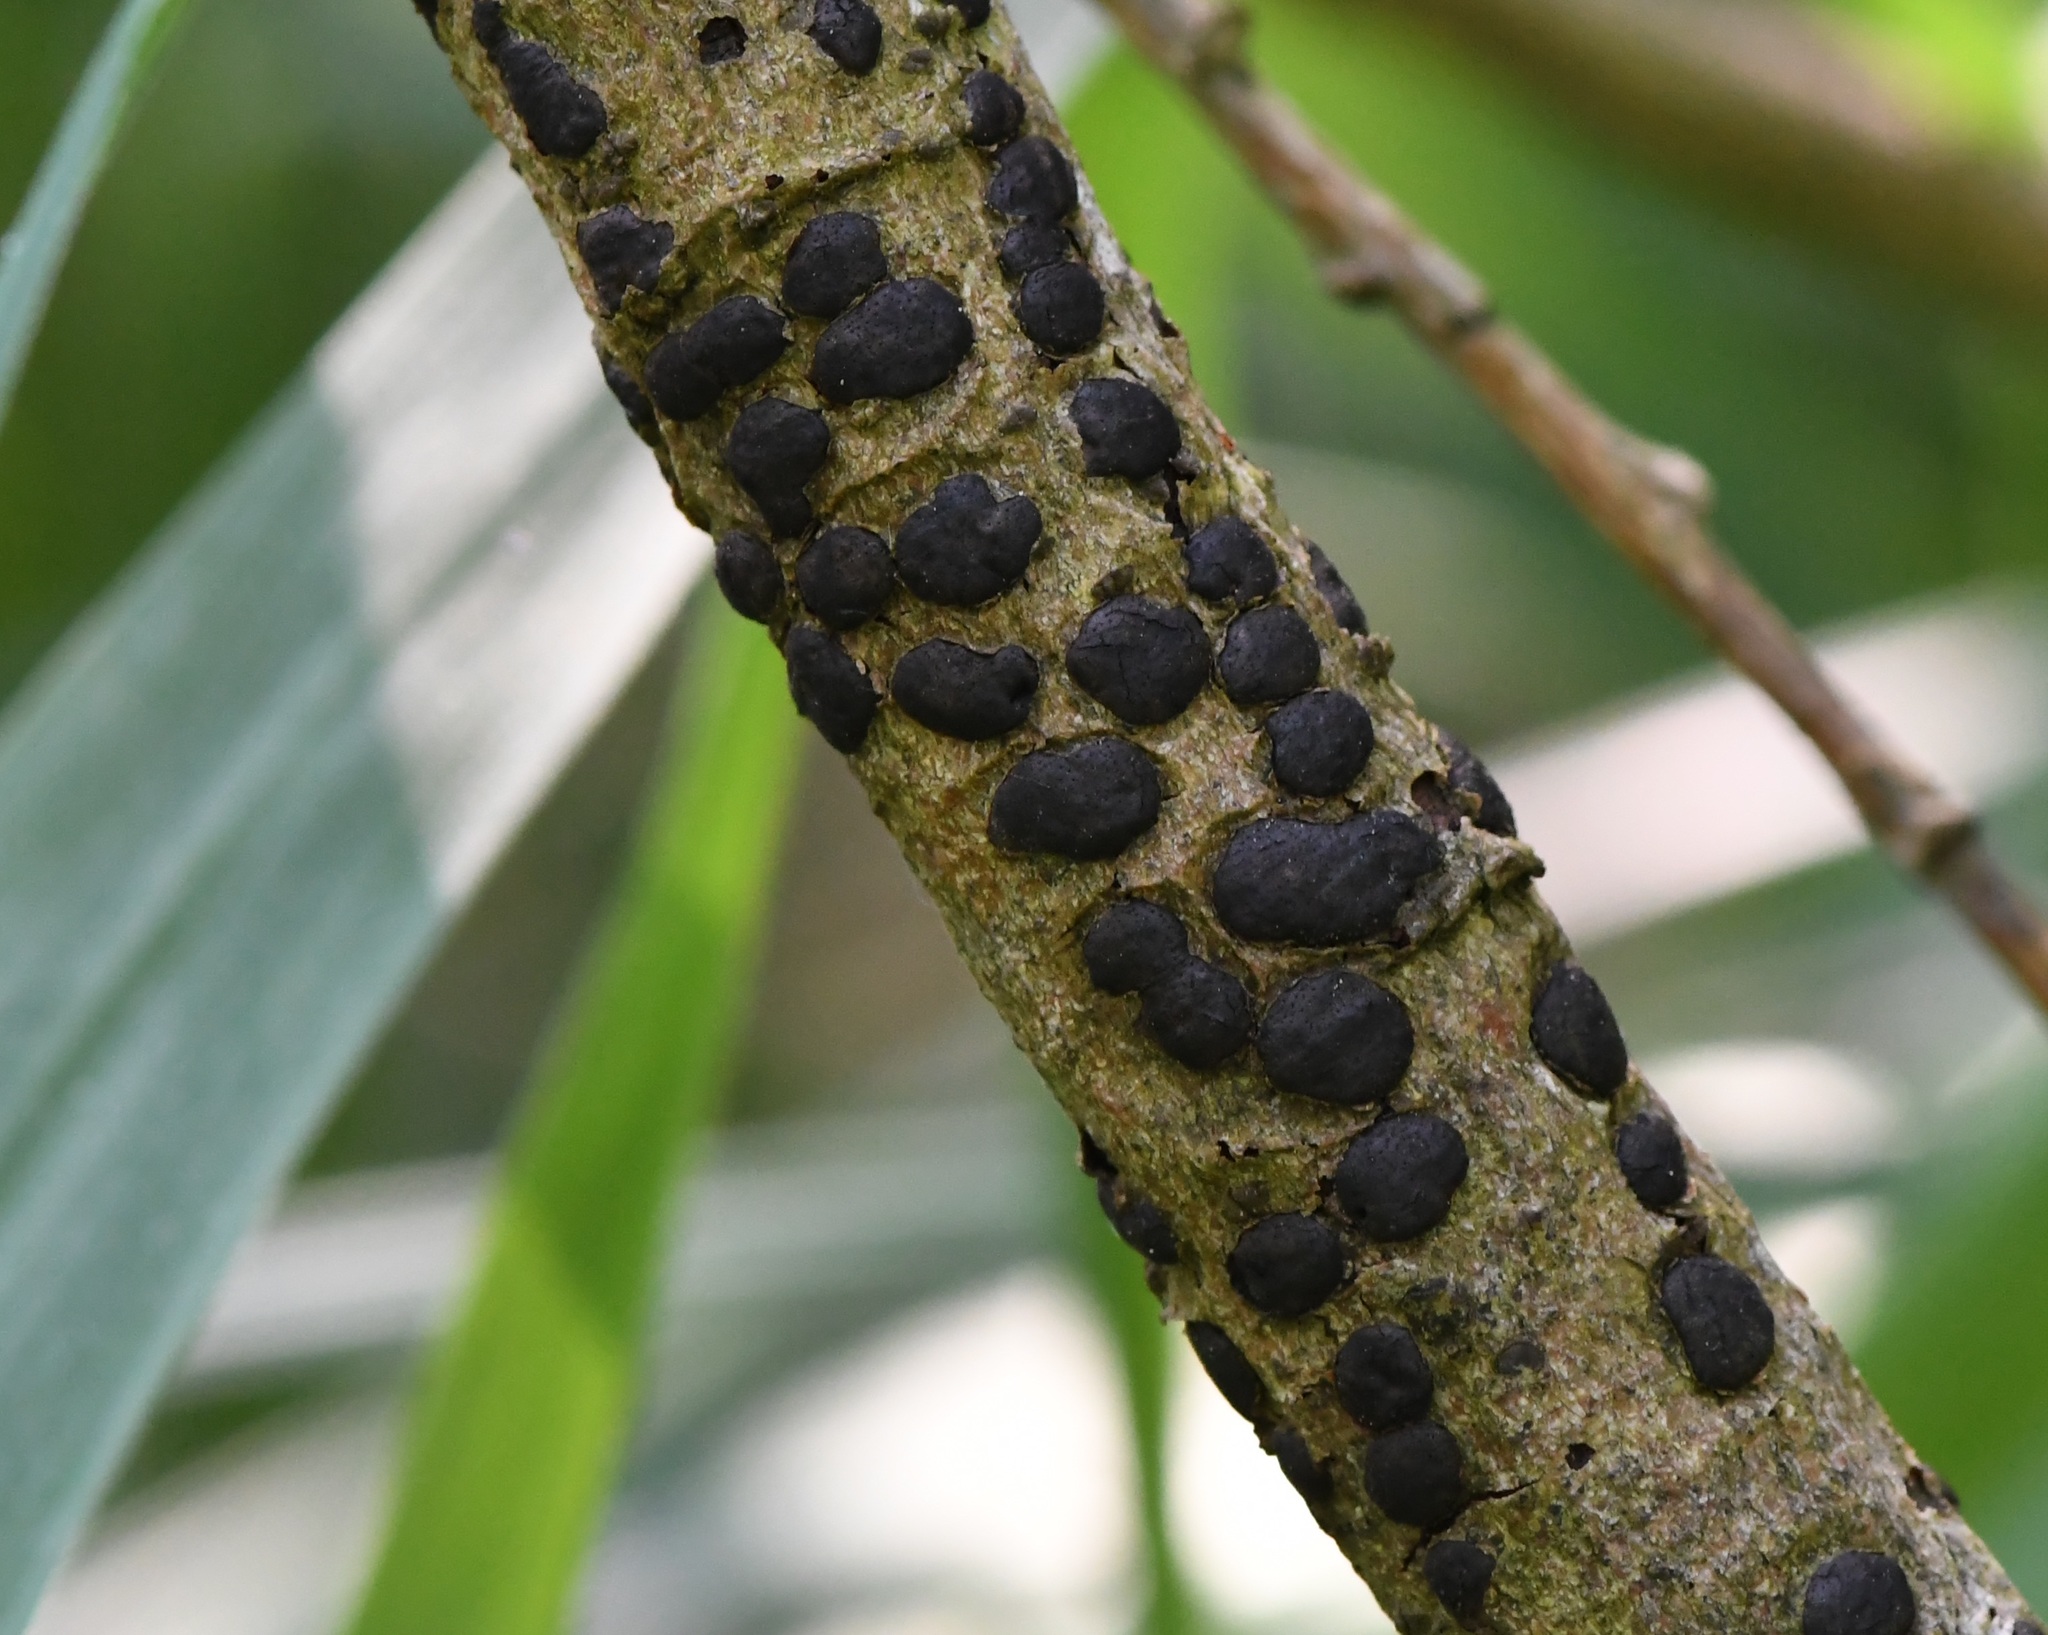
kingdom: Fungi
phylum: Ascomycota
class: Sordariomycetes
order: Xylariales
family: Diatrypaceae
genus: Diatrype
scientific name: Diatrype bullata
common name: Willow barkspot
